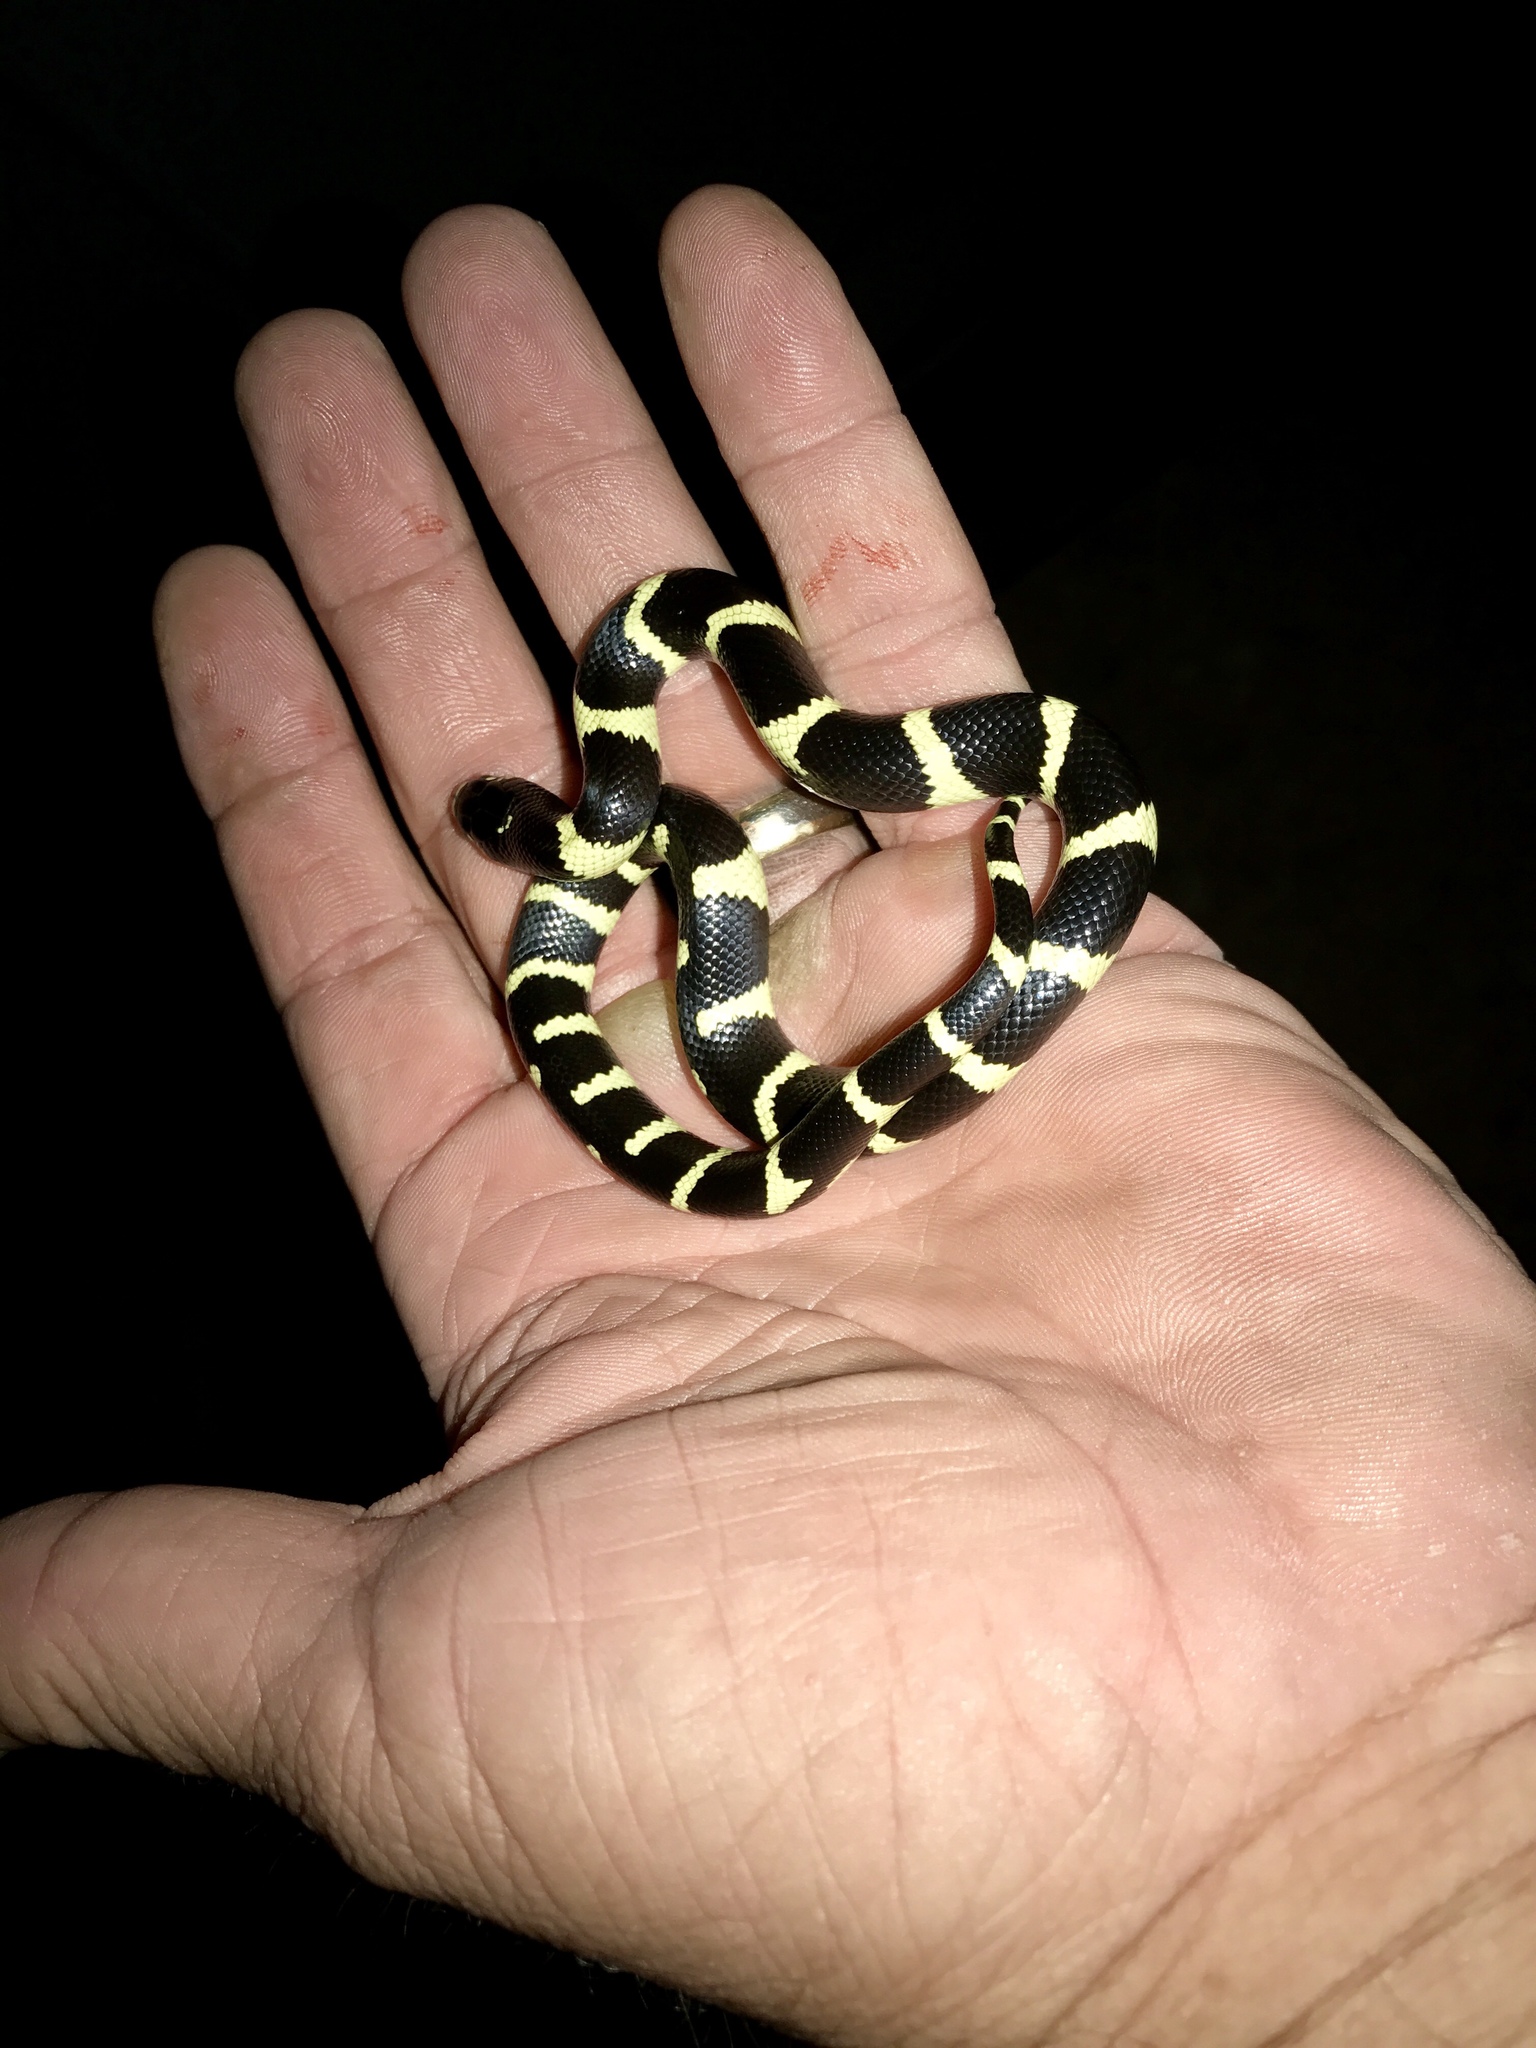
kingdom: Animalia
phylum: Chordata
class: Squamata
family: Colubridae
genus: Lampropeltis
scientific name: Lampropeltis californiae
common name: California kingsnake
